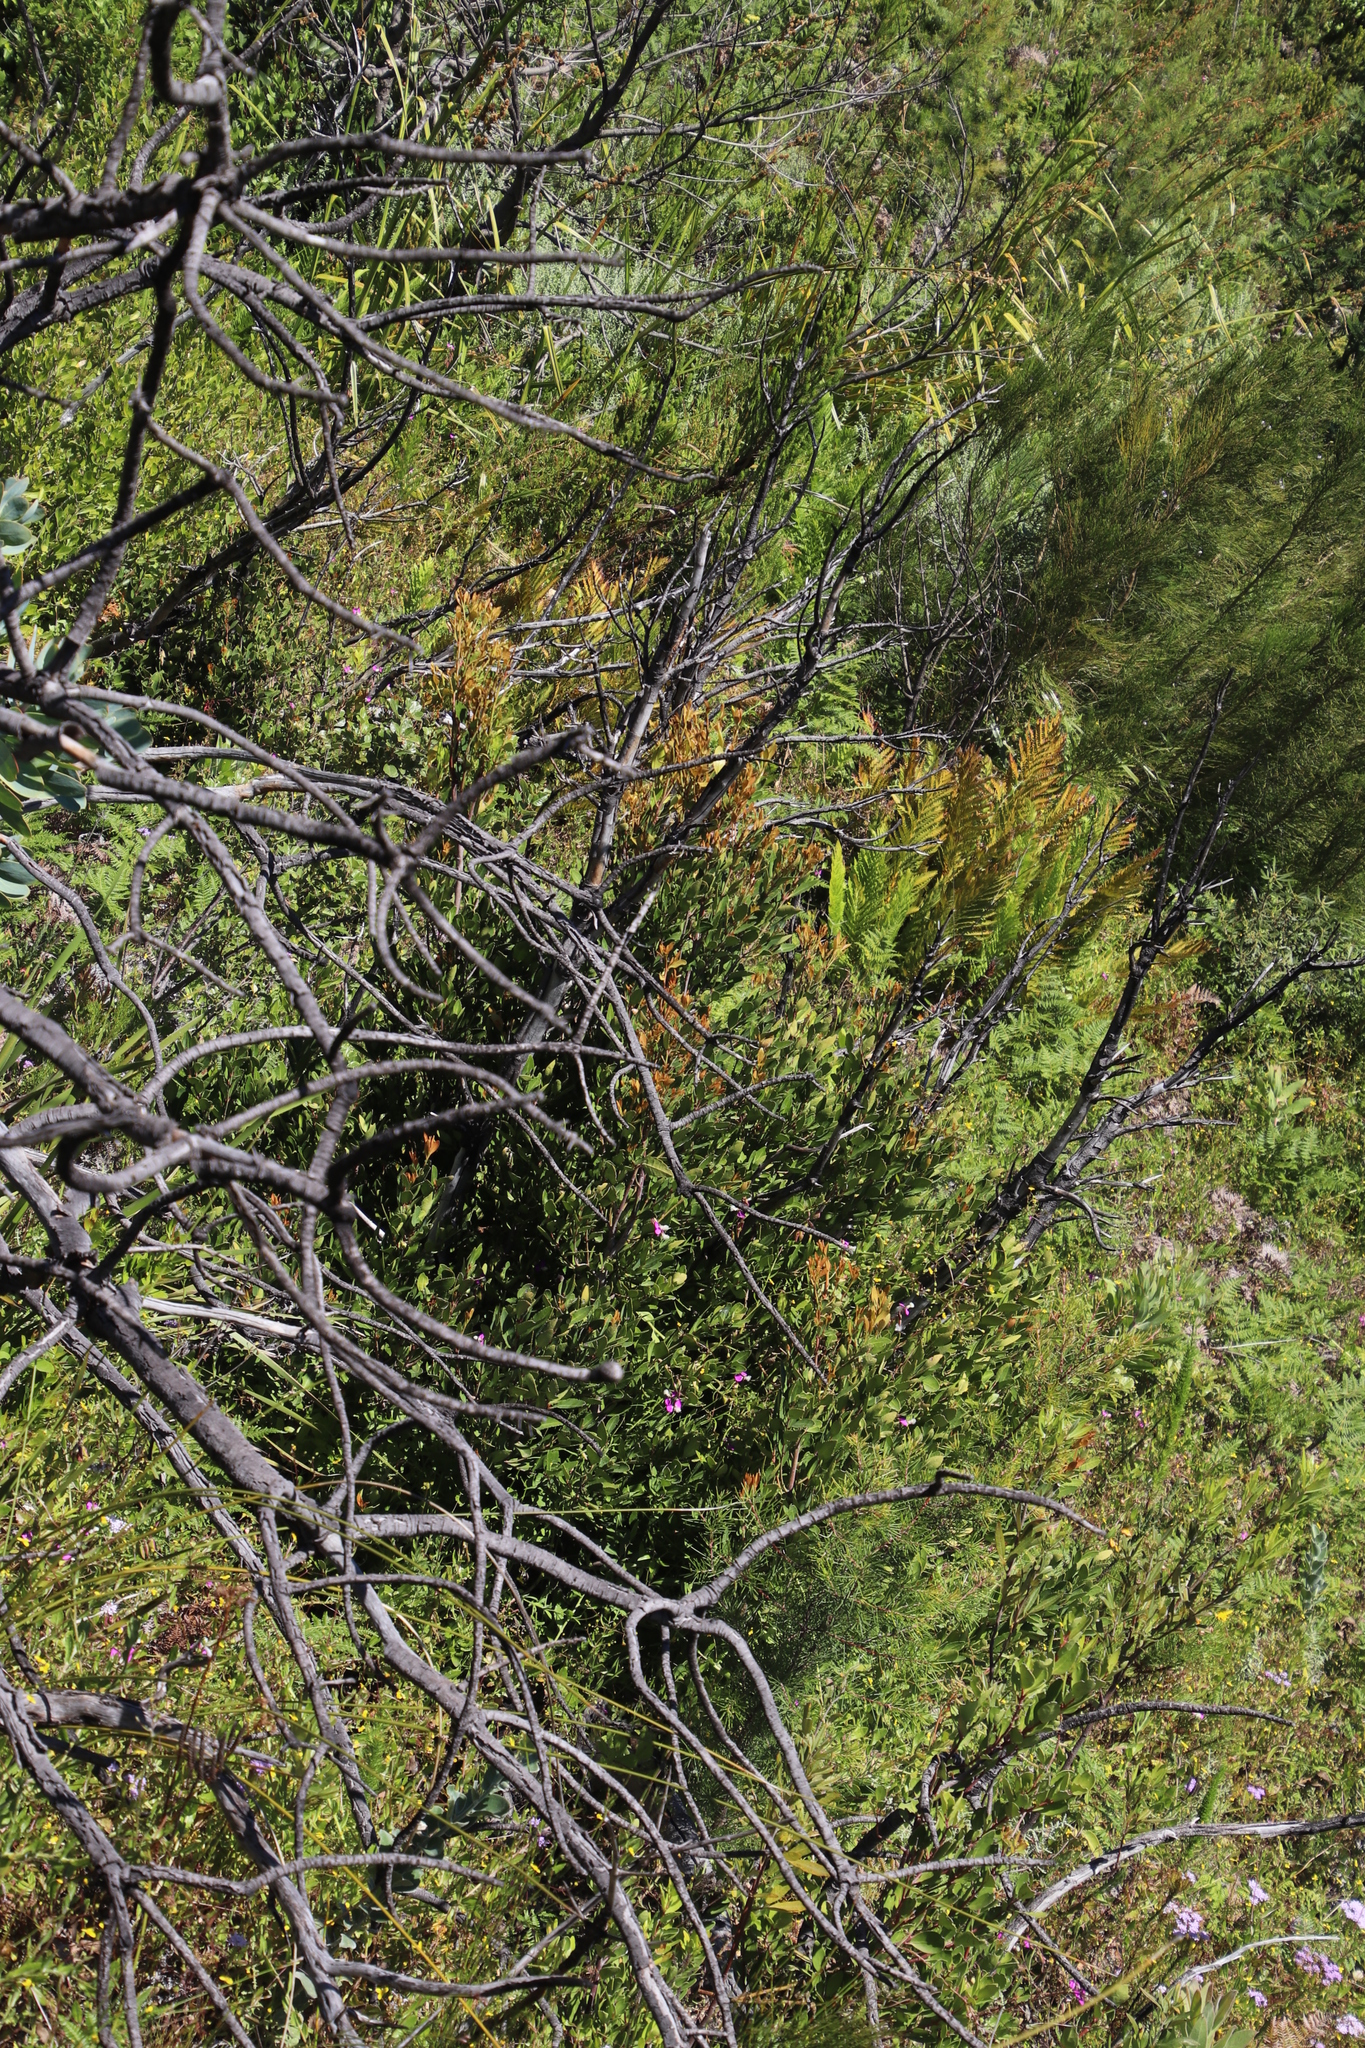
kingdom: Plantae
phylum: Tracheophyta
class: Magnoliopsida
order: Sapindales
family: Anacardiaceae
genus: Searsia
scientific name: Searsia lucida
